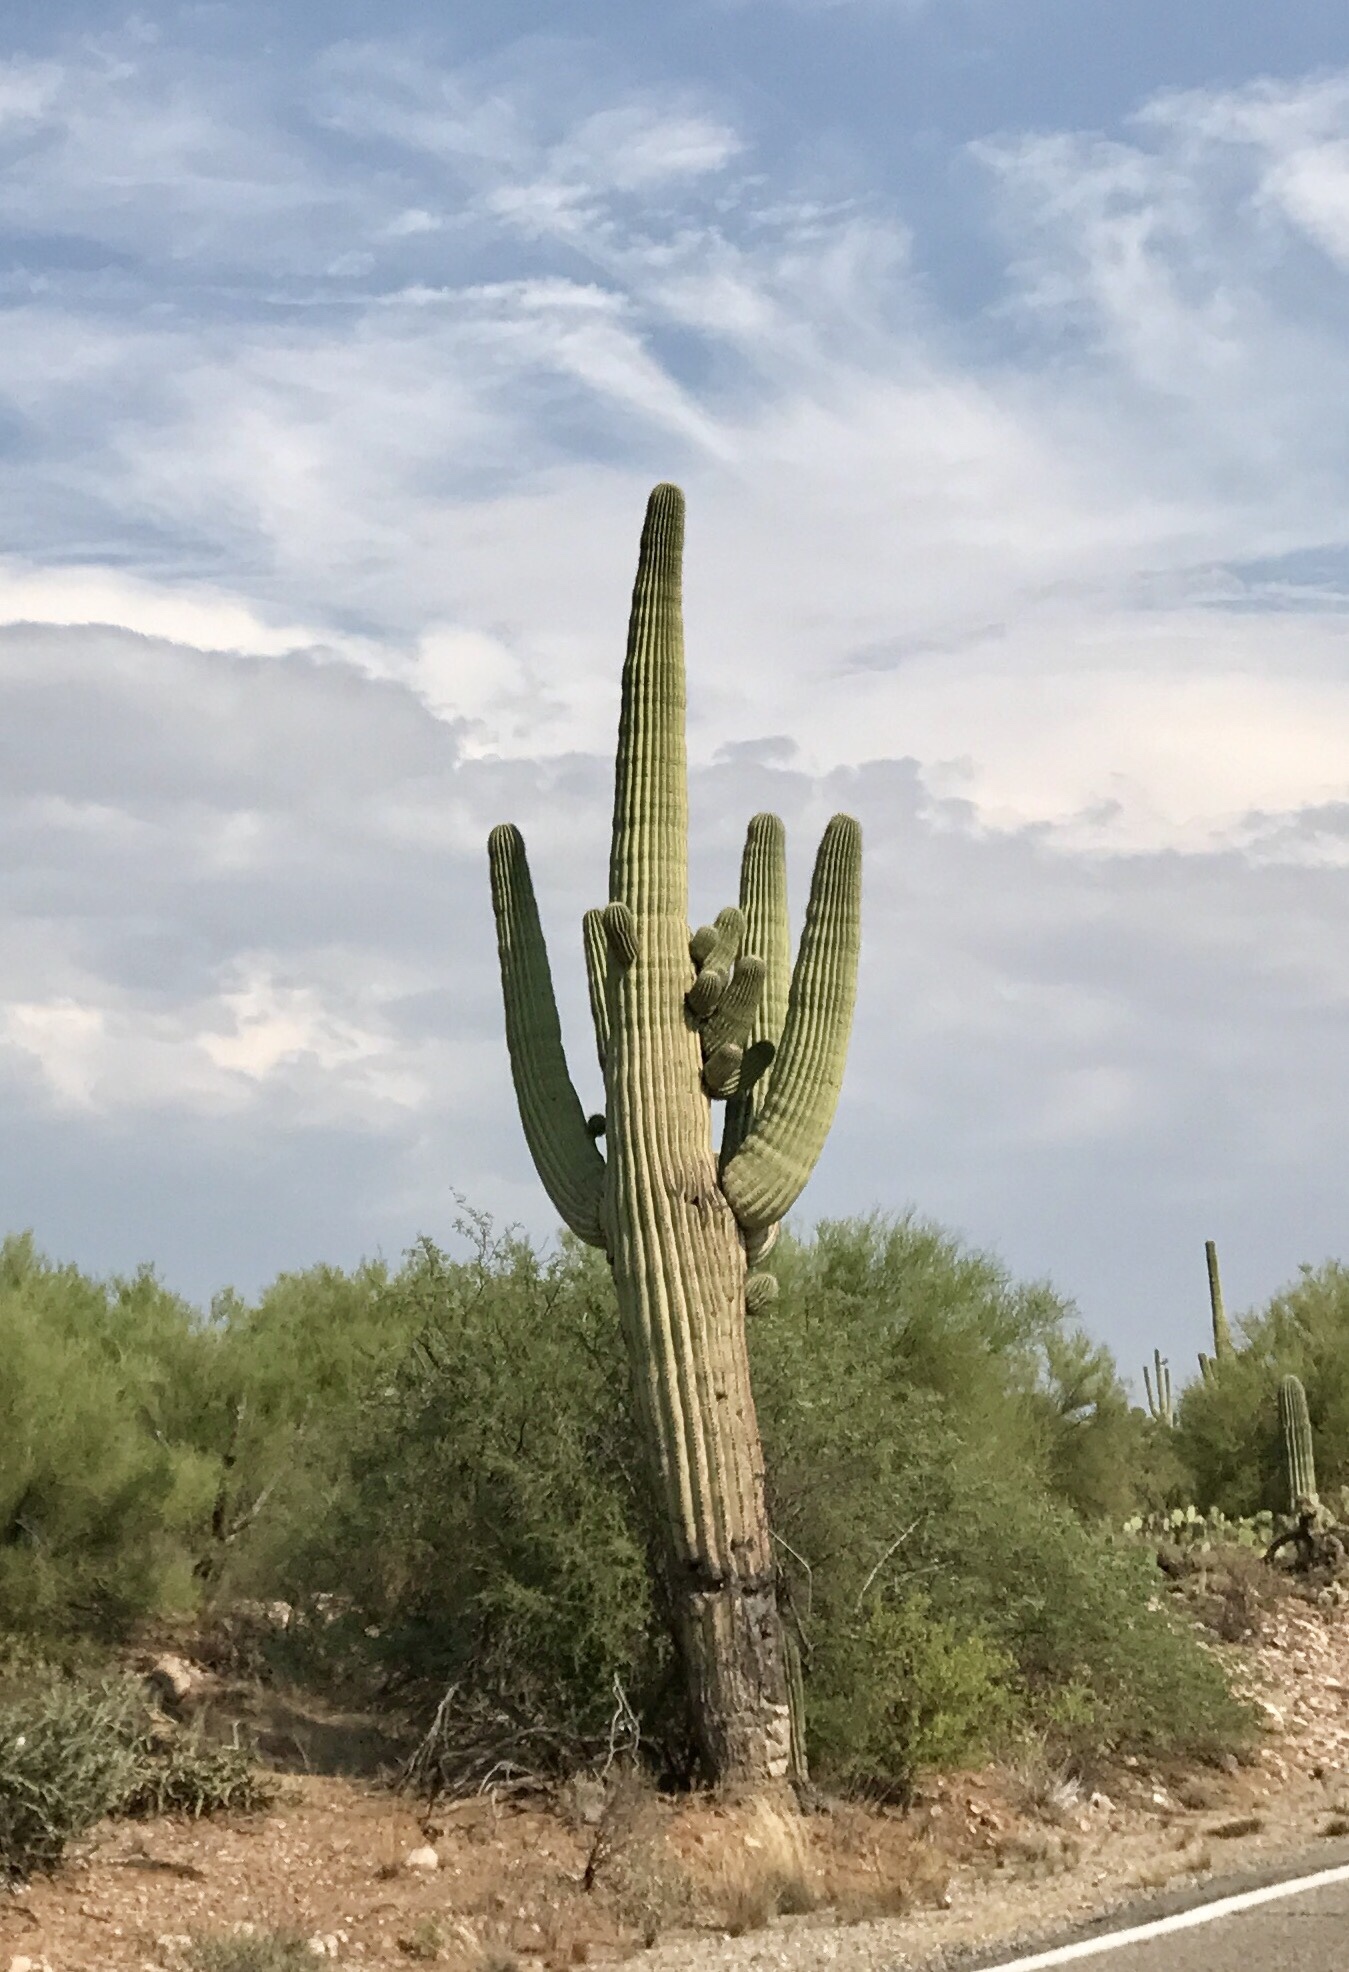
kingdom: Plantae
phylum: Tracheophyta
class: Magnoliopsida
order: Caryophyllales
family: Cactaceae
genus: Carnegiea
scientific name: Carnegiea gigantea
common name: Saguaro
